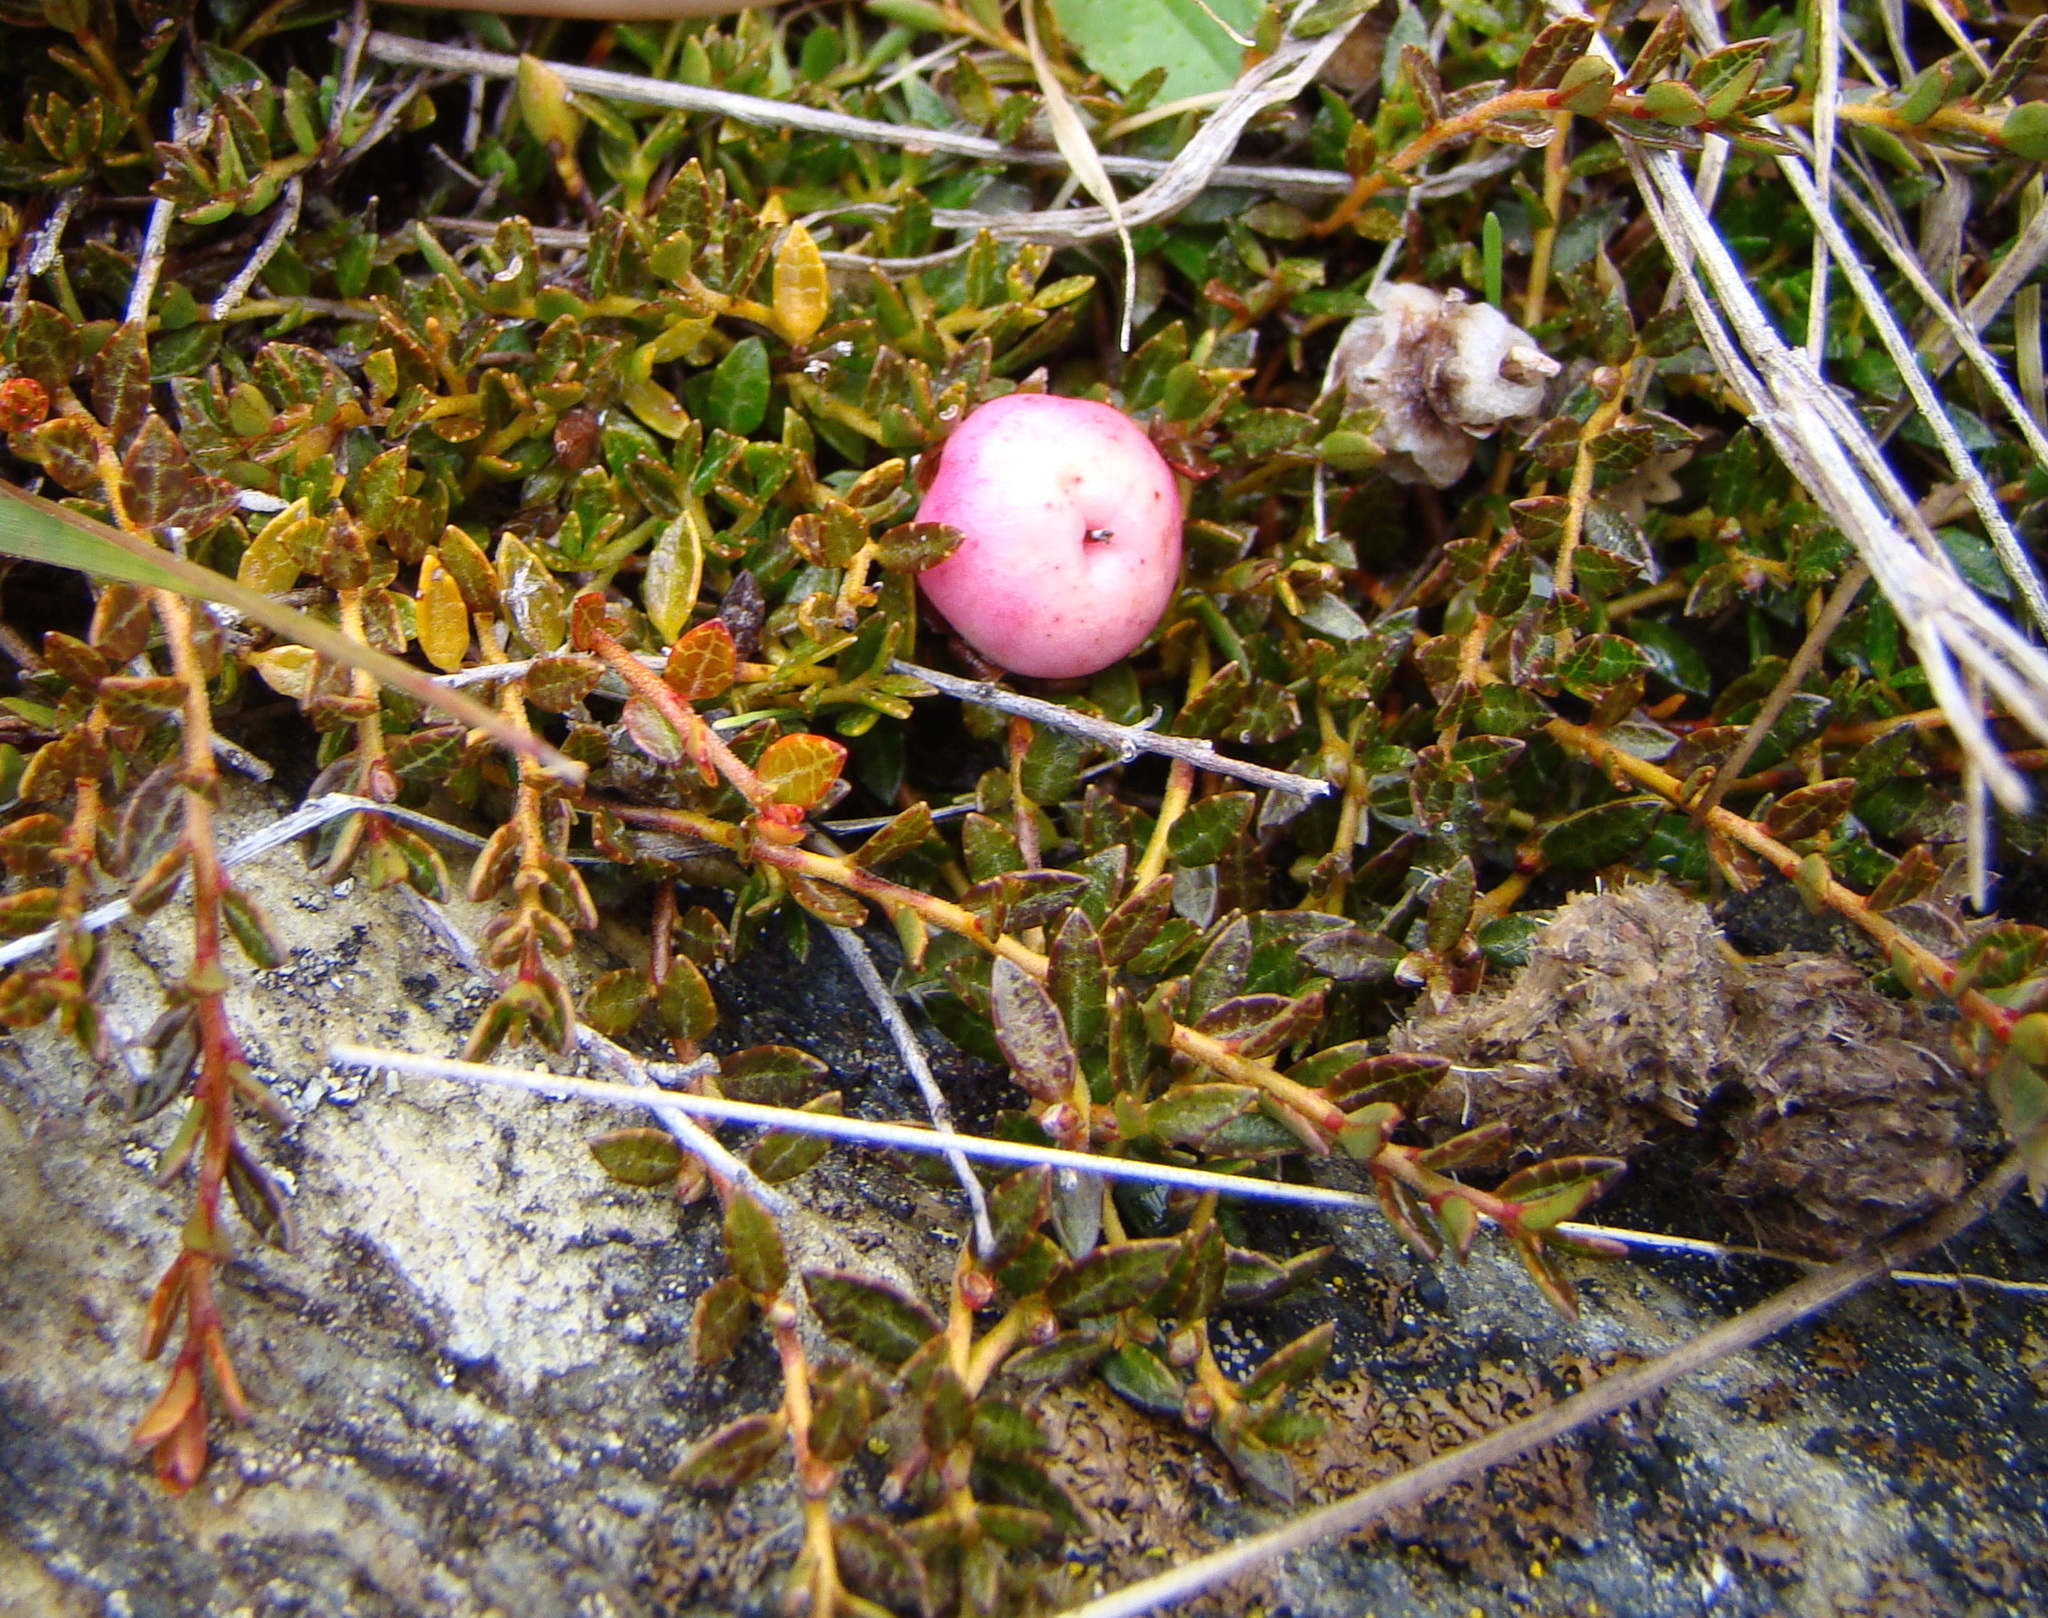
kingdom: Plantae
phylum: Tracheophyta
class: Magnoliopsida
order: Ericales
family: Ericaceae
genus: Gaultheria
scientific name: Gaultheria parvula
